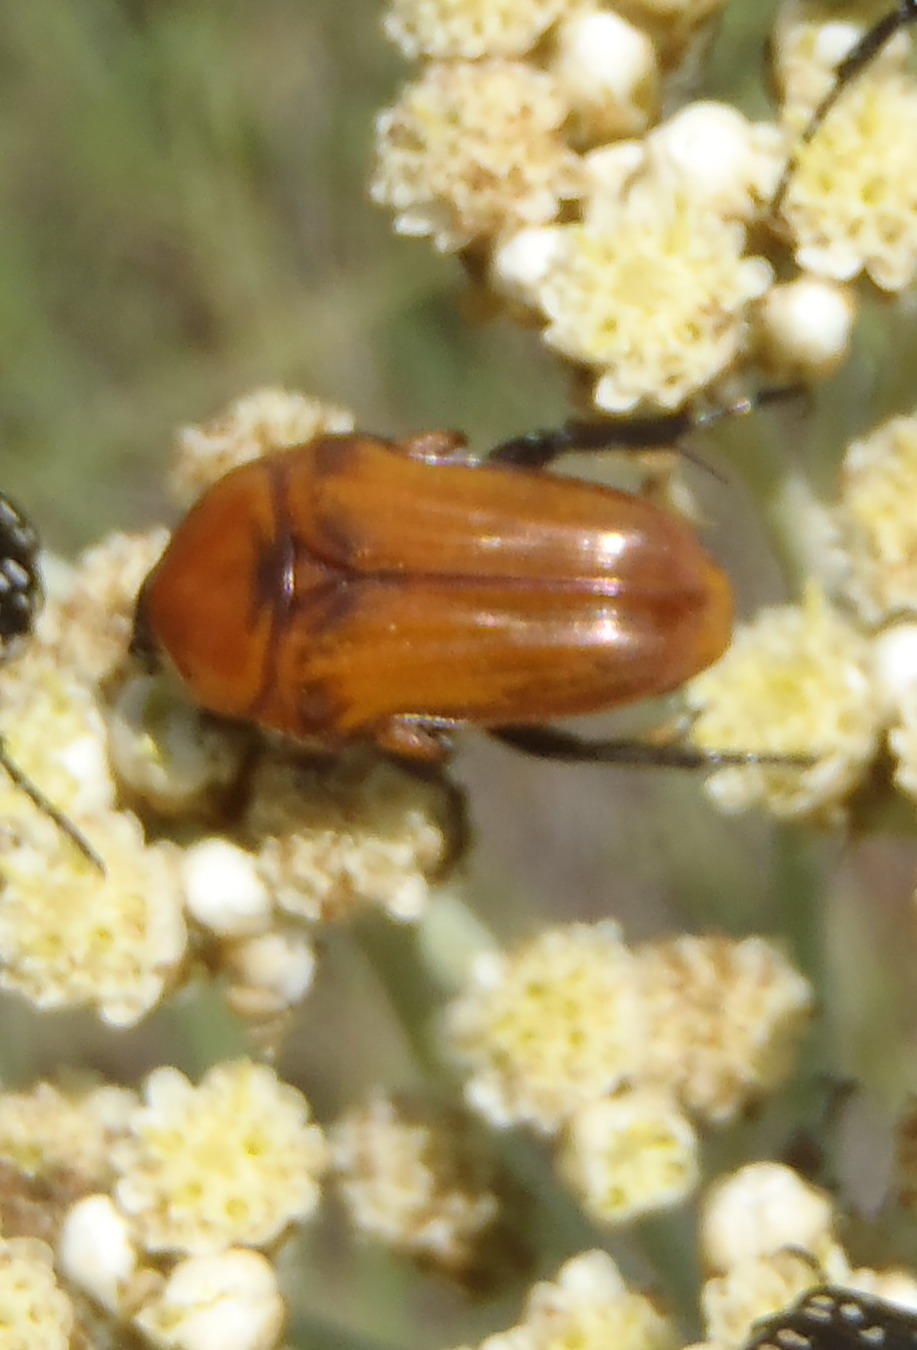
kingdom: Animalia
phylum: Arthropoda
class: Insecta
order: Coleoptera
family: Scarabaeidae
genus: Leucocelis
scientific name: Leucocelis rubra
